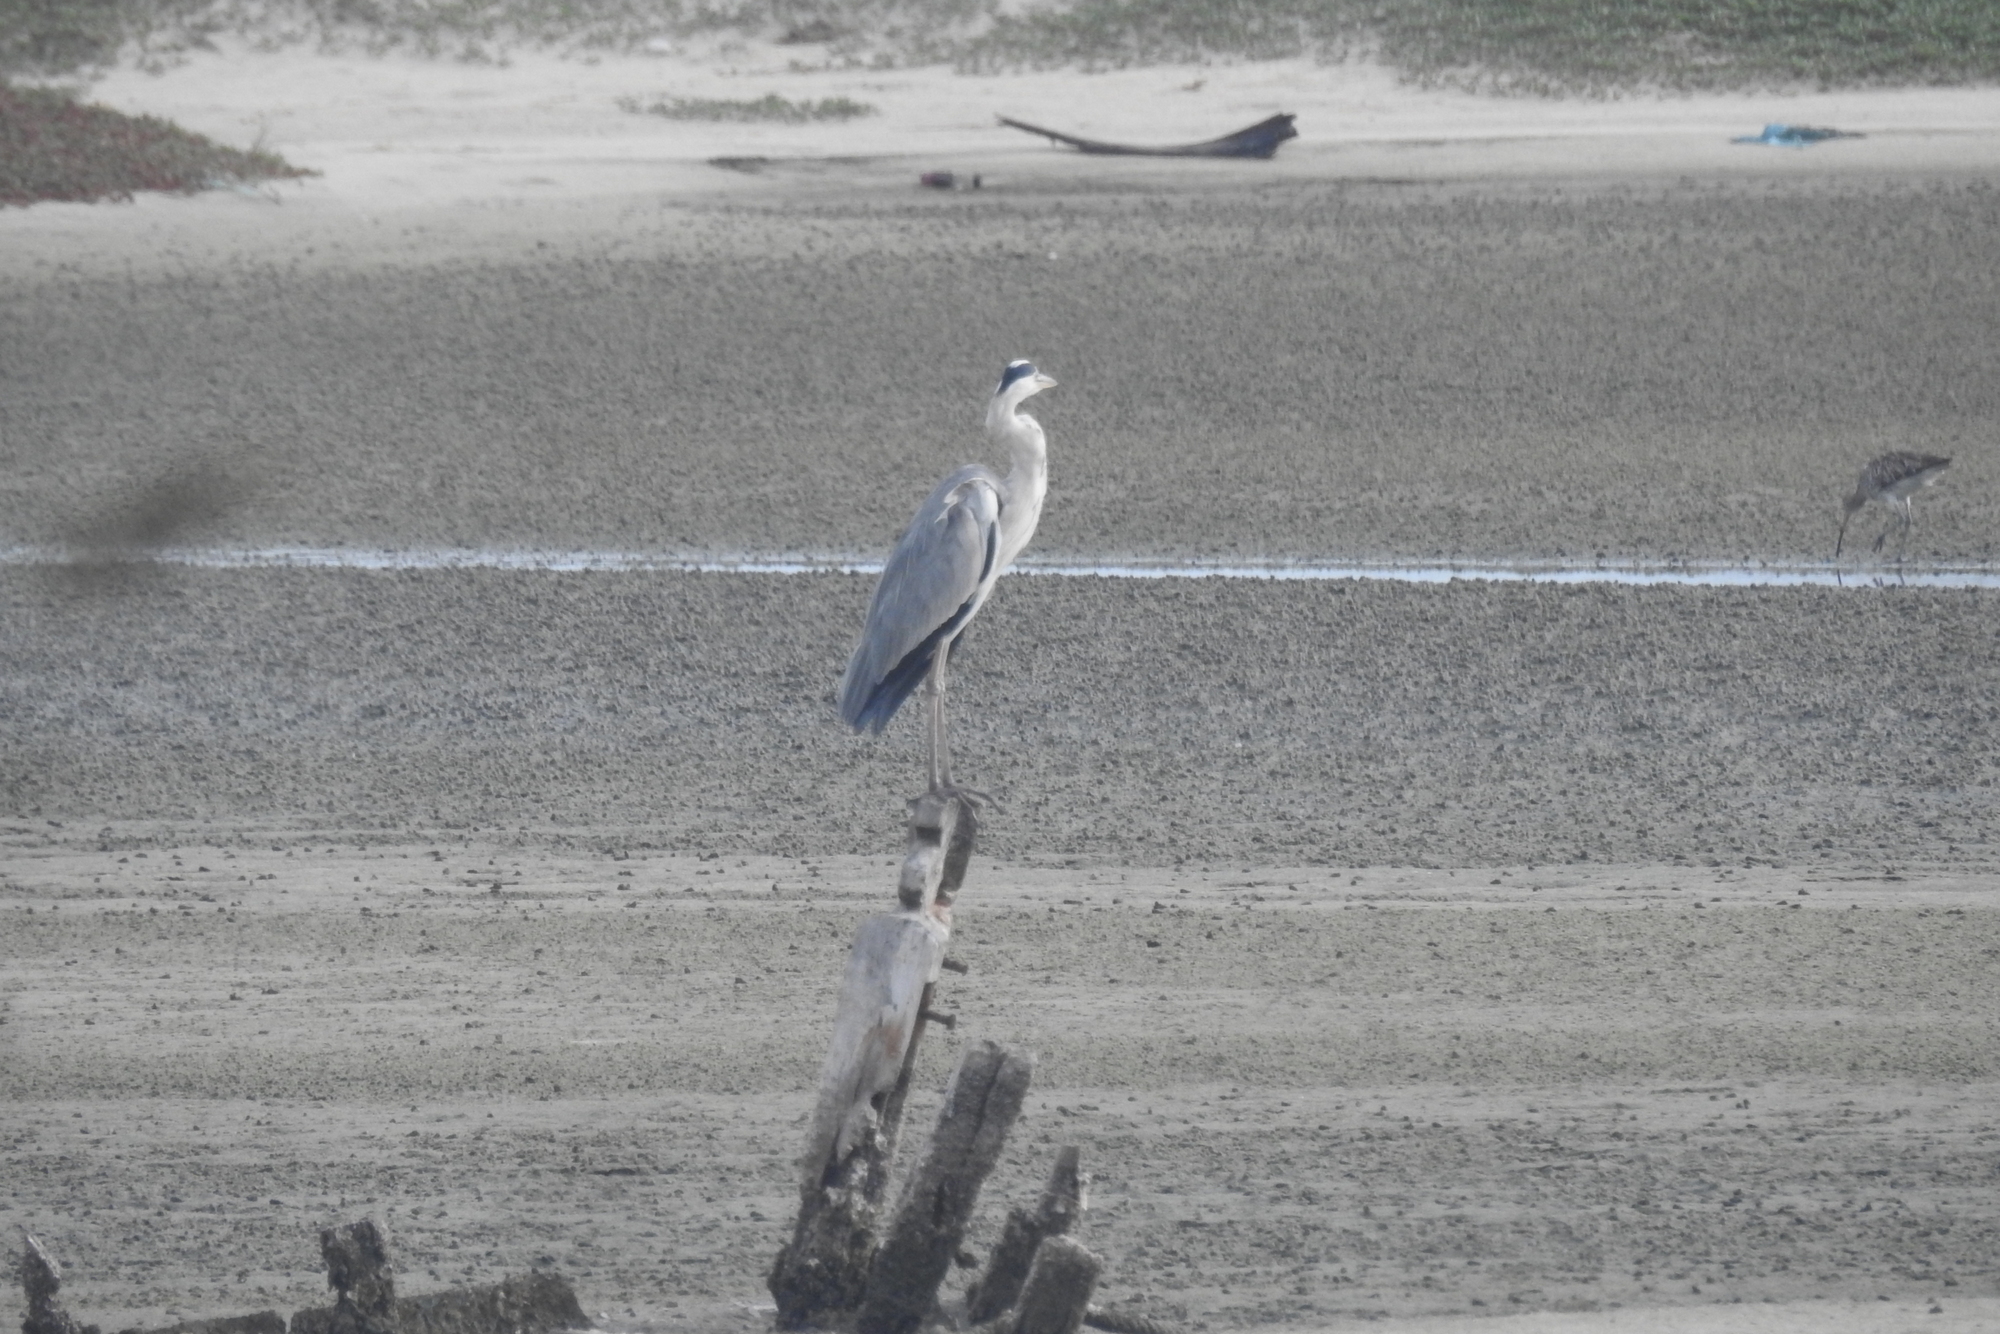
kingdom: Animalia
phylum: Chordata
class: Aves
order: Pelecaniformes
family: Ardeidae
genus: Ardea
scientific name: Ardea cinerea
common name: Grey heron
